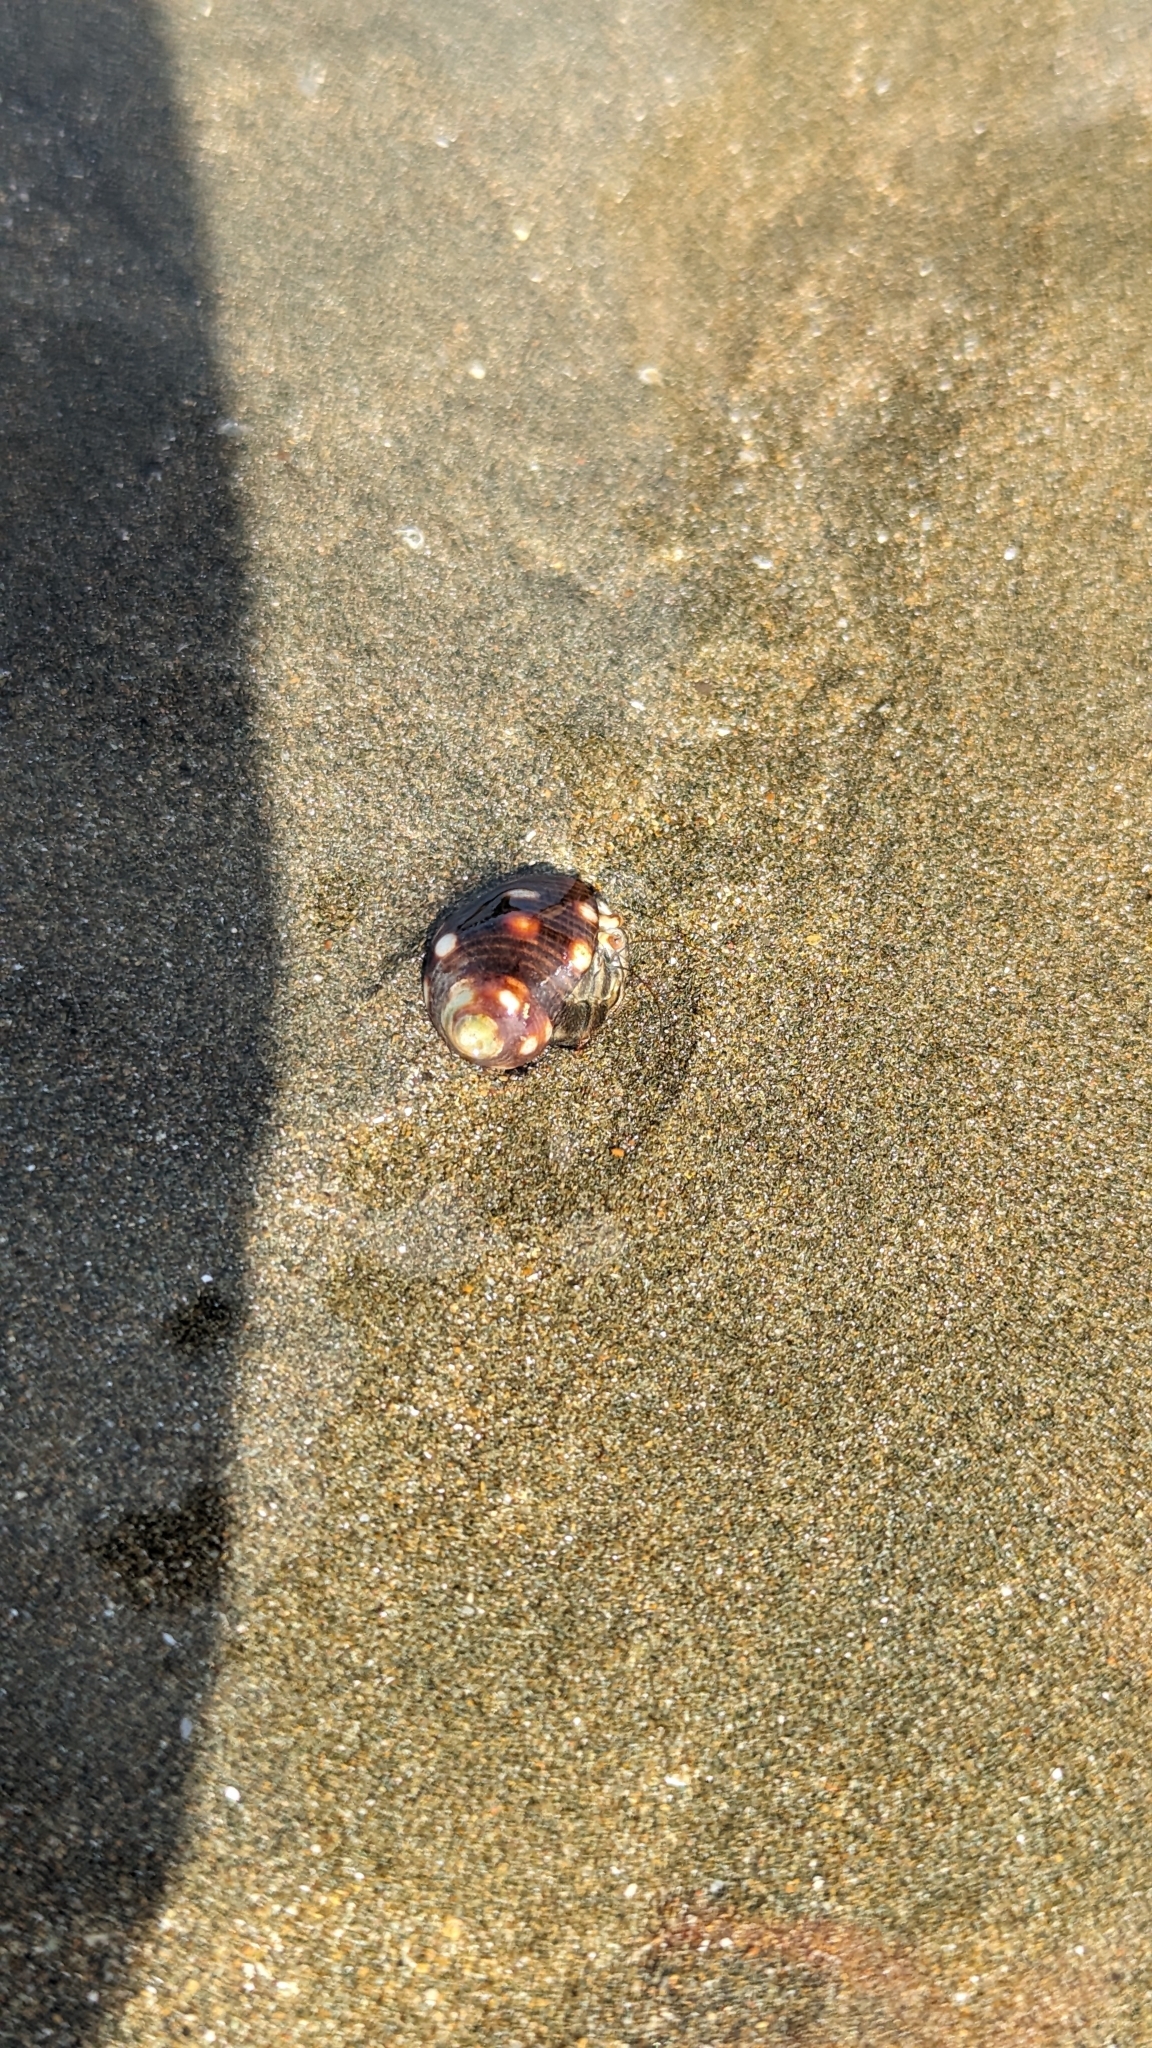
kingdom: Animalia
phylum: Arthropoda
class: Malacostraca
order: Decapoda
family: Coenobitidae
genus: Coenobita
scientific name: Coenobita compressus
